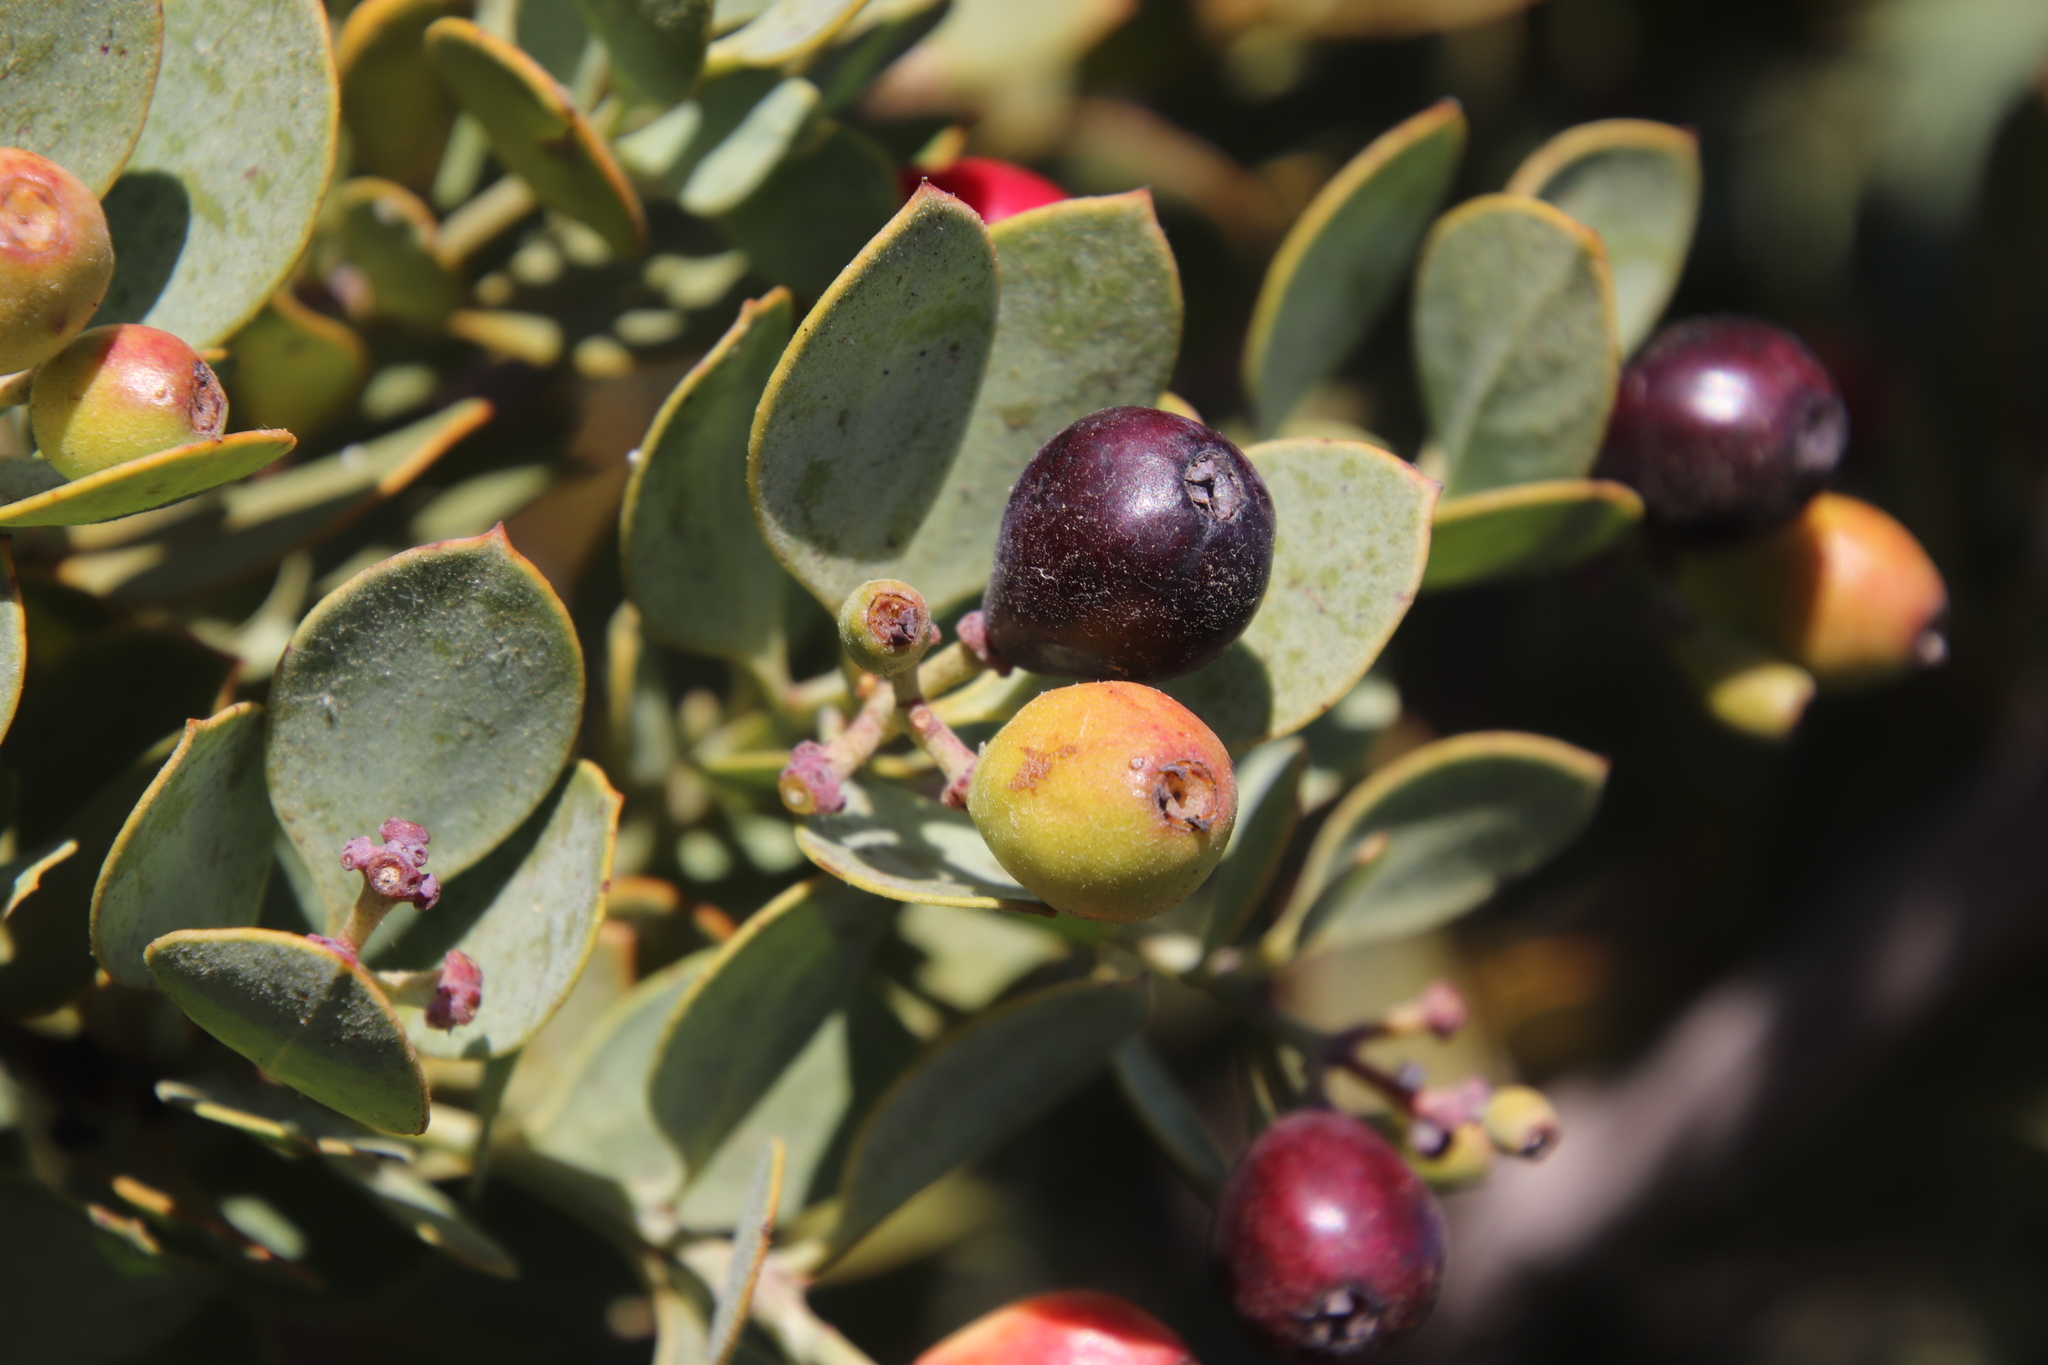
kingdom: Plantae
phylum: Tracheophyta
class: Magnoliopsida
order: Santalales
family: Santalaceae
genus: Osyris
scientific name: Osyris compressa
